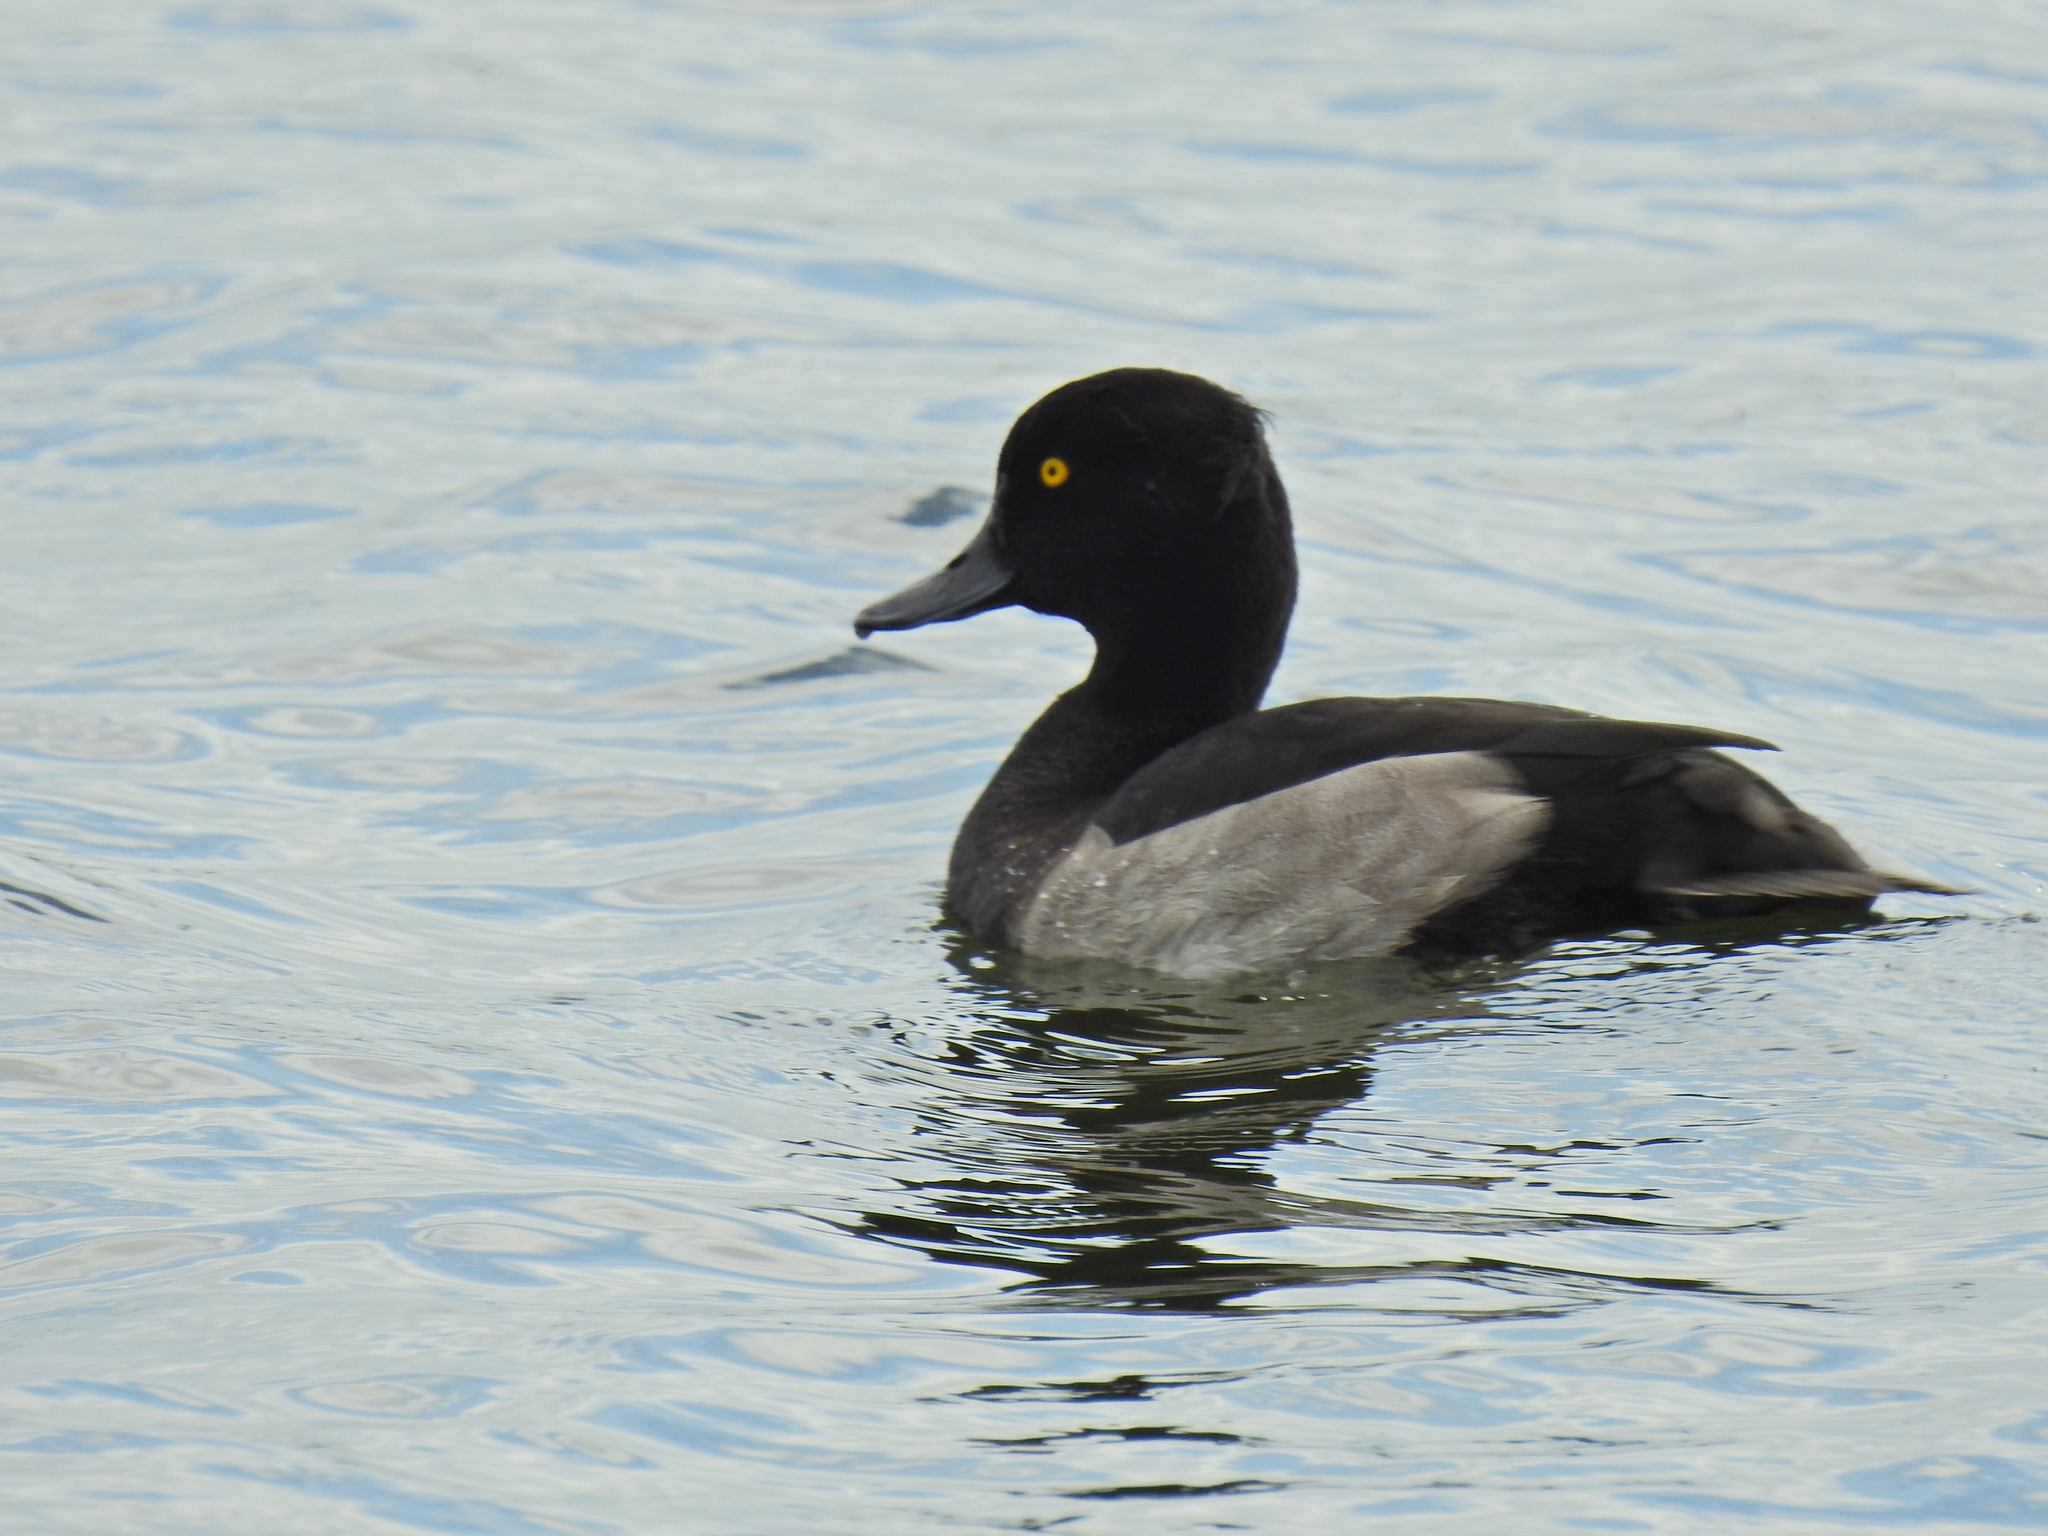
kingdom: Animalia
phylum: Chordata
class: Aves
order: Anseriformes
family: Anatidae
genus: Aythya
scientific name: Aythya fuligula
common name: Tufted duck
